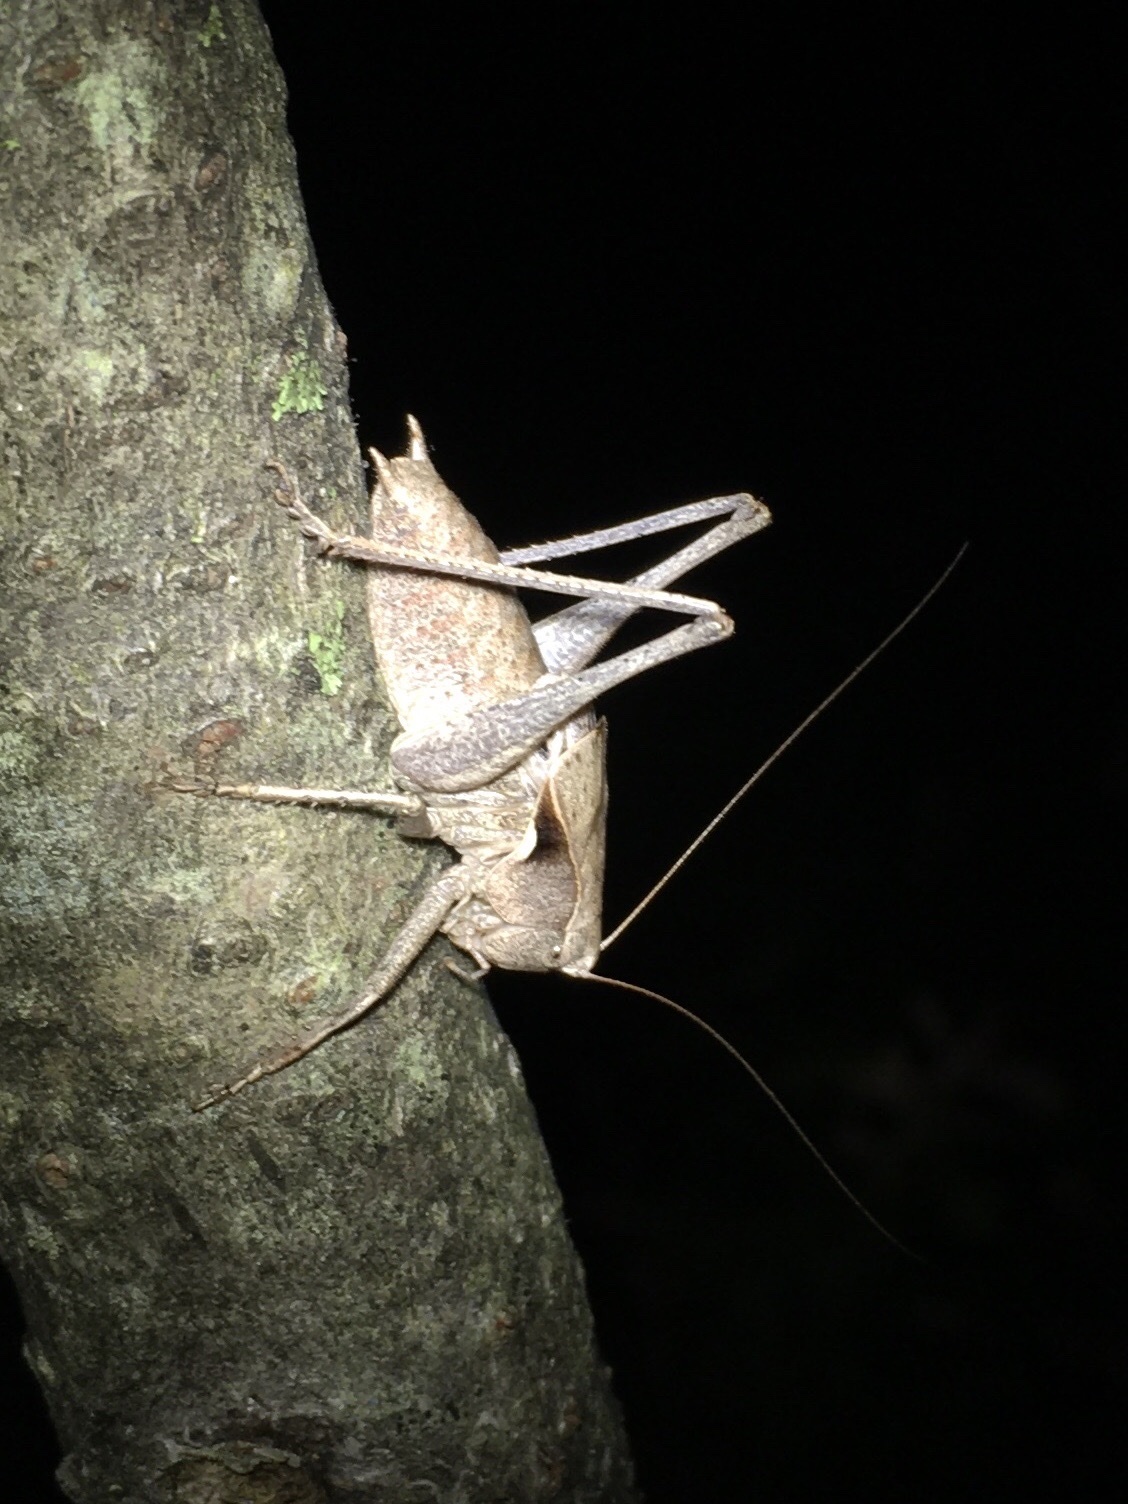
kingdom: Animalia
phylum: Arthropoda
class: Insecta
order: Orthoptera
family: Tettigoniidae
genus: Atlanticus
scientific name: Atlanticus davisi
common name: Davis's shield-bearer
